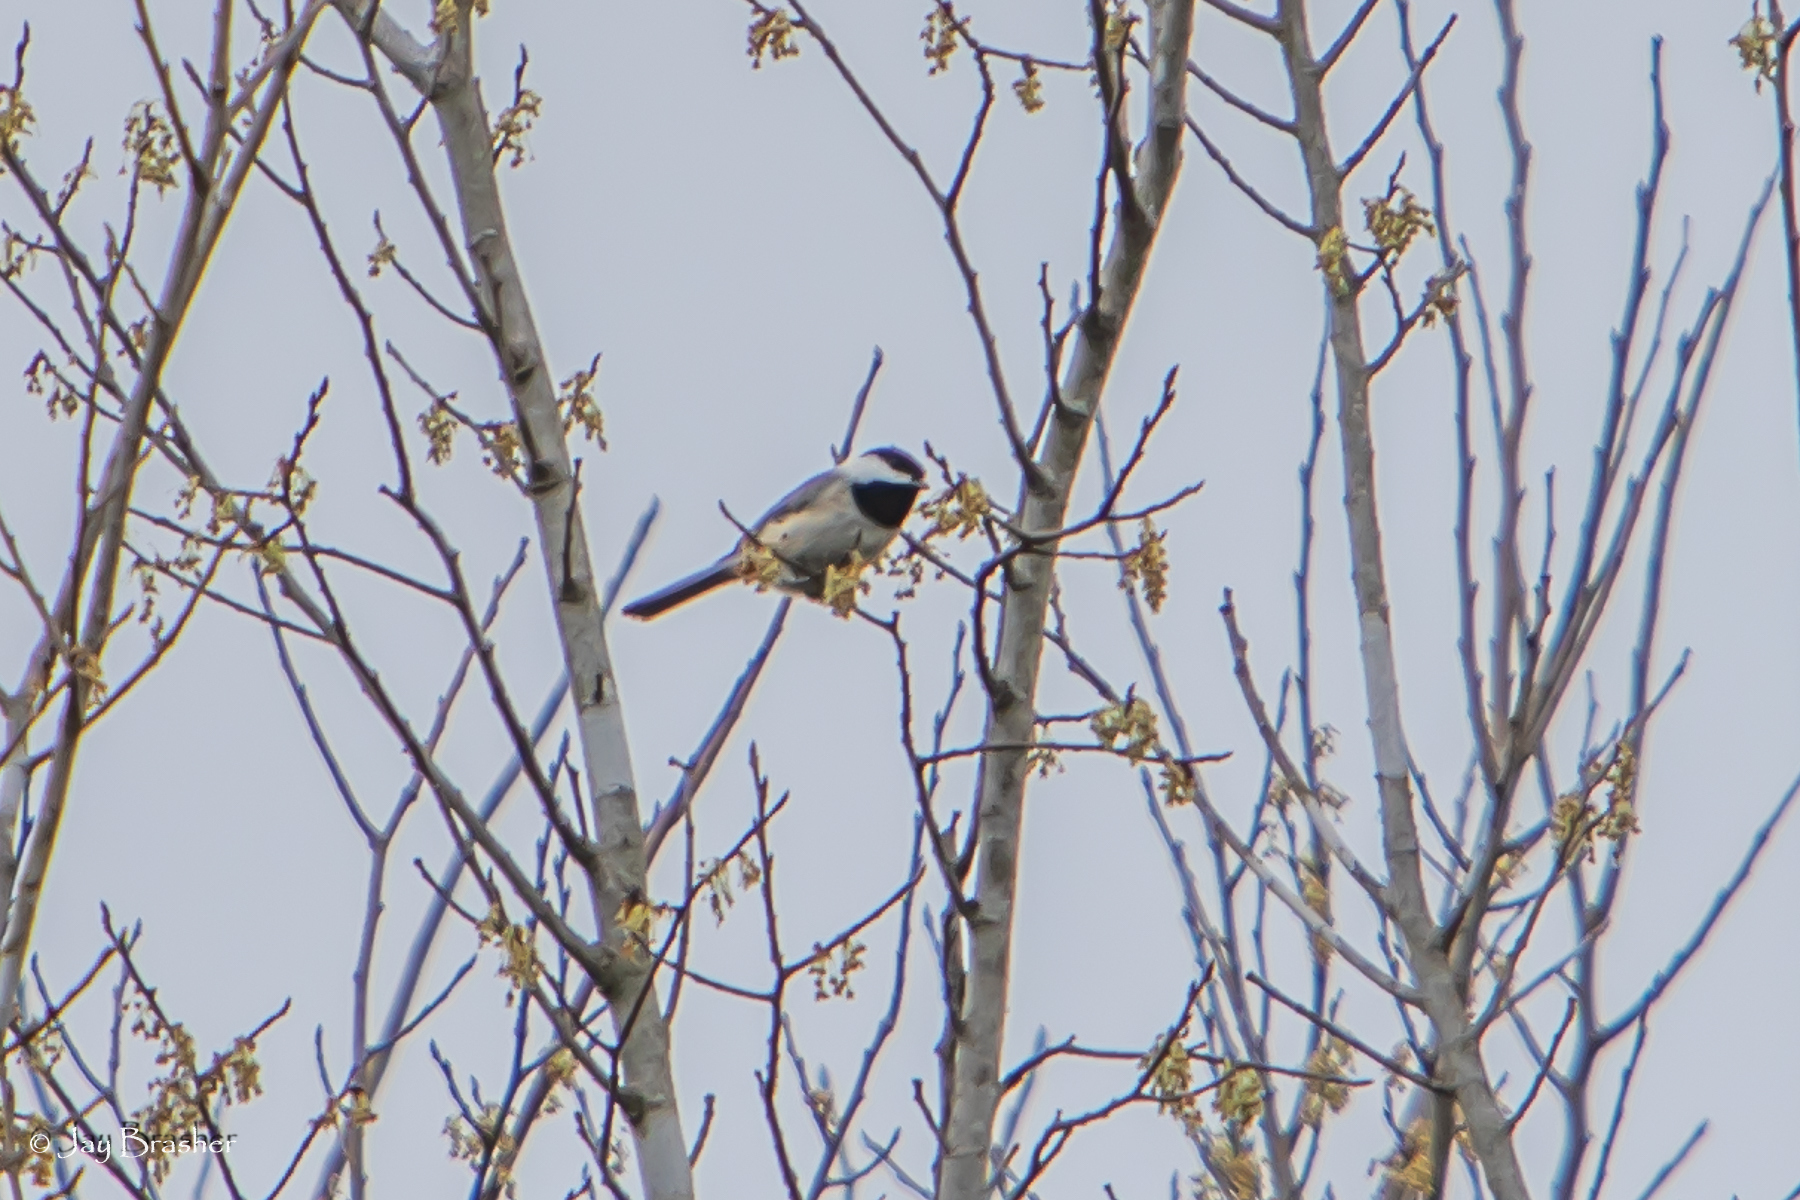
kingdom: Animalia
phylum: Chordata
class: Aves
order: Passeriformes
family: Paridae
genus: Poecile
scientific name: Poecile carolinensis
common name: Carolina chickadee
